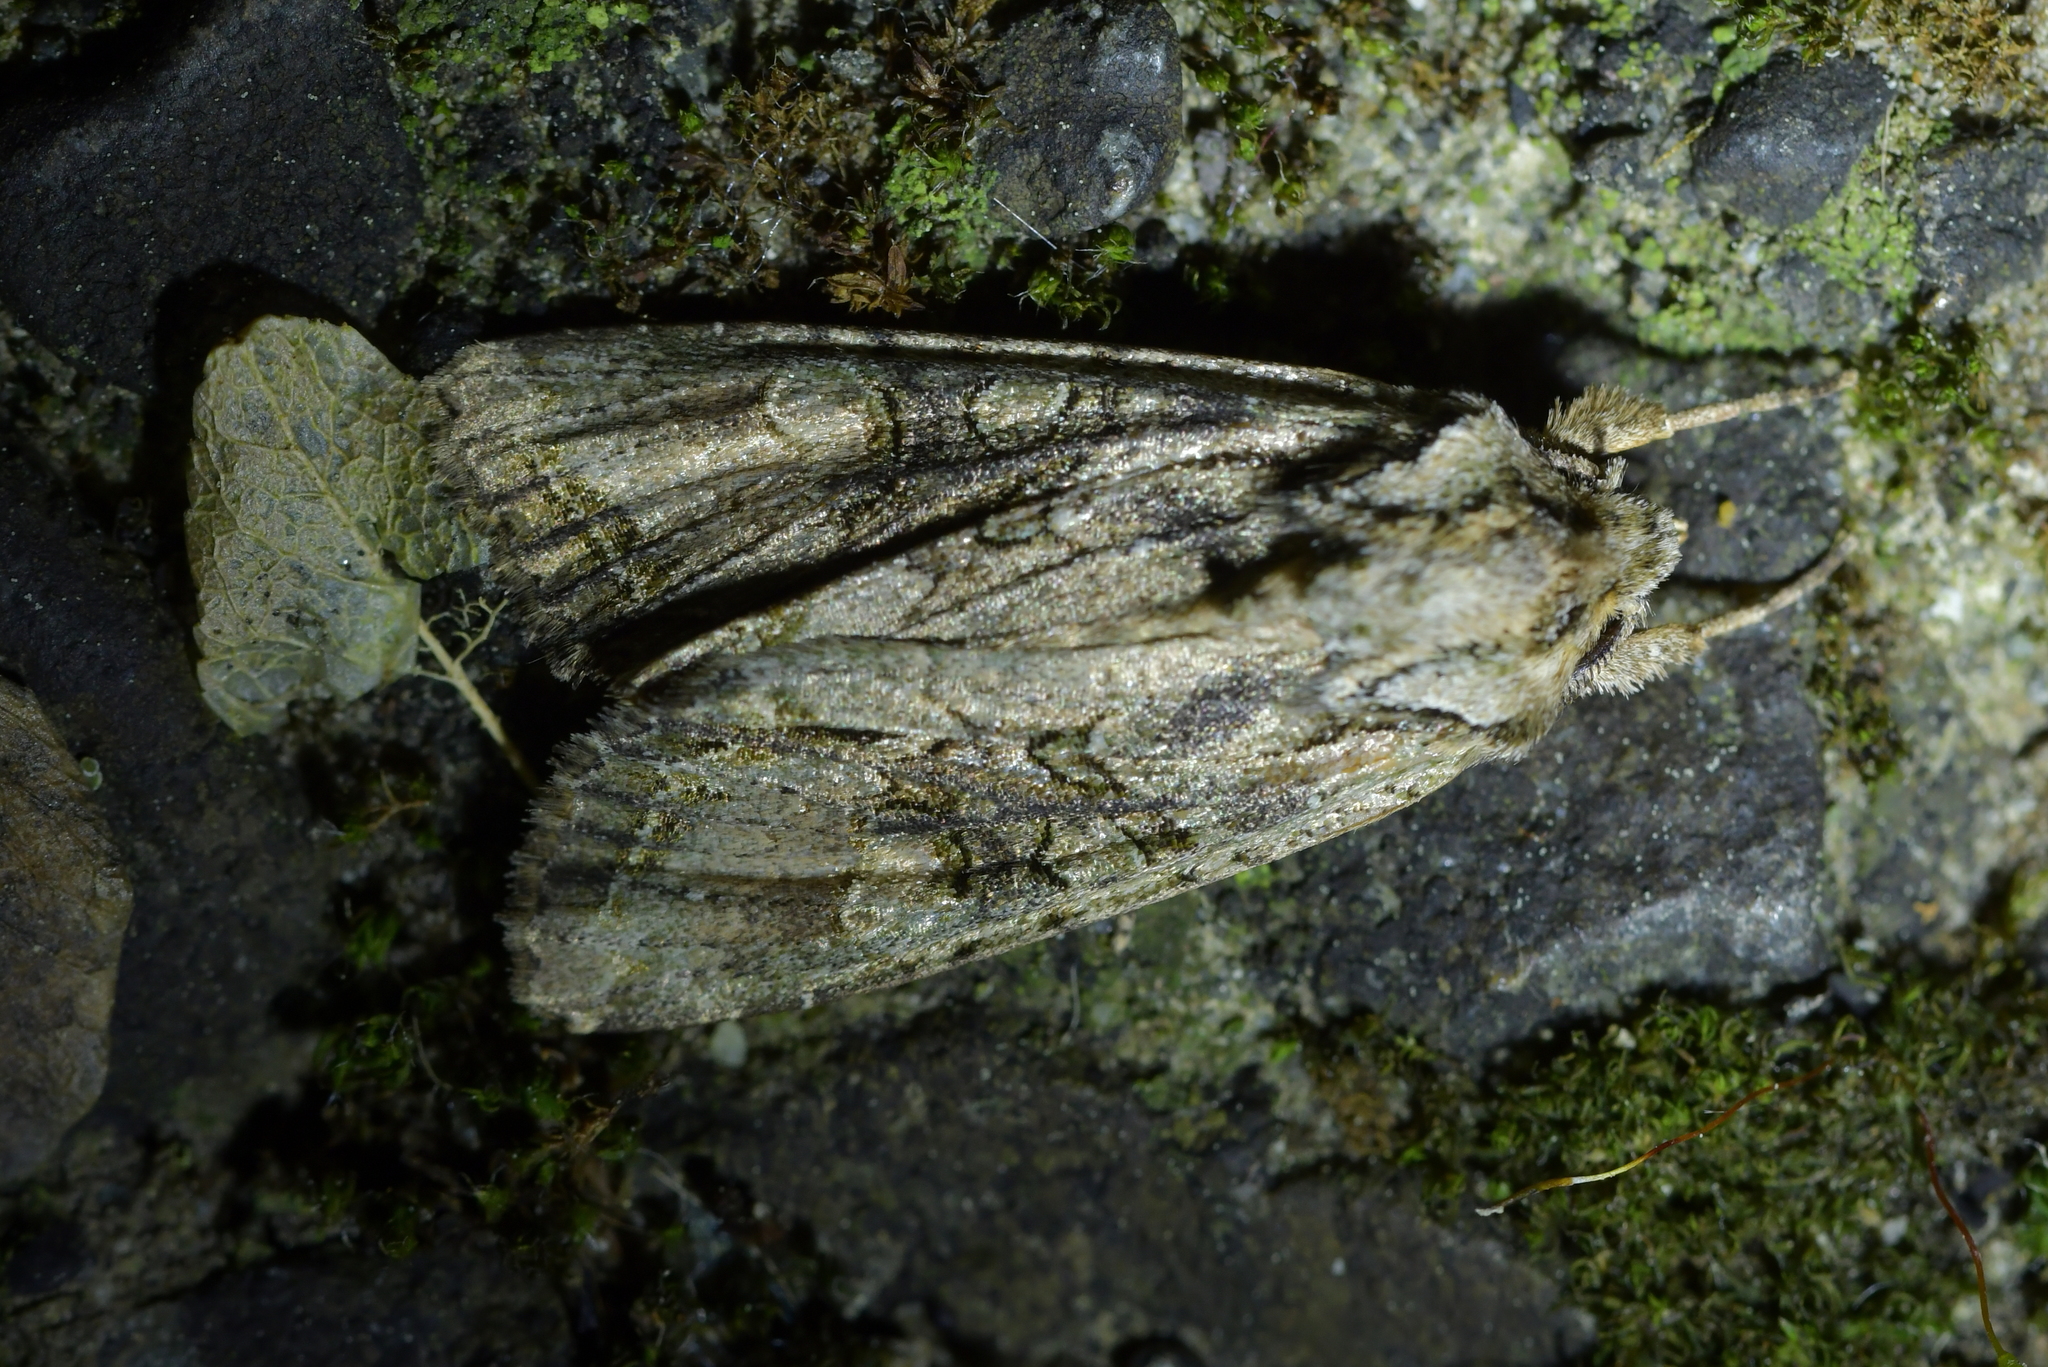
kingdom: Animalia
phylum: Arthropoda
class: Insecta
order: Lepidoptera
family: Noctuidae
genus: Ichneutica
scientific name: Ichneutica mutans
